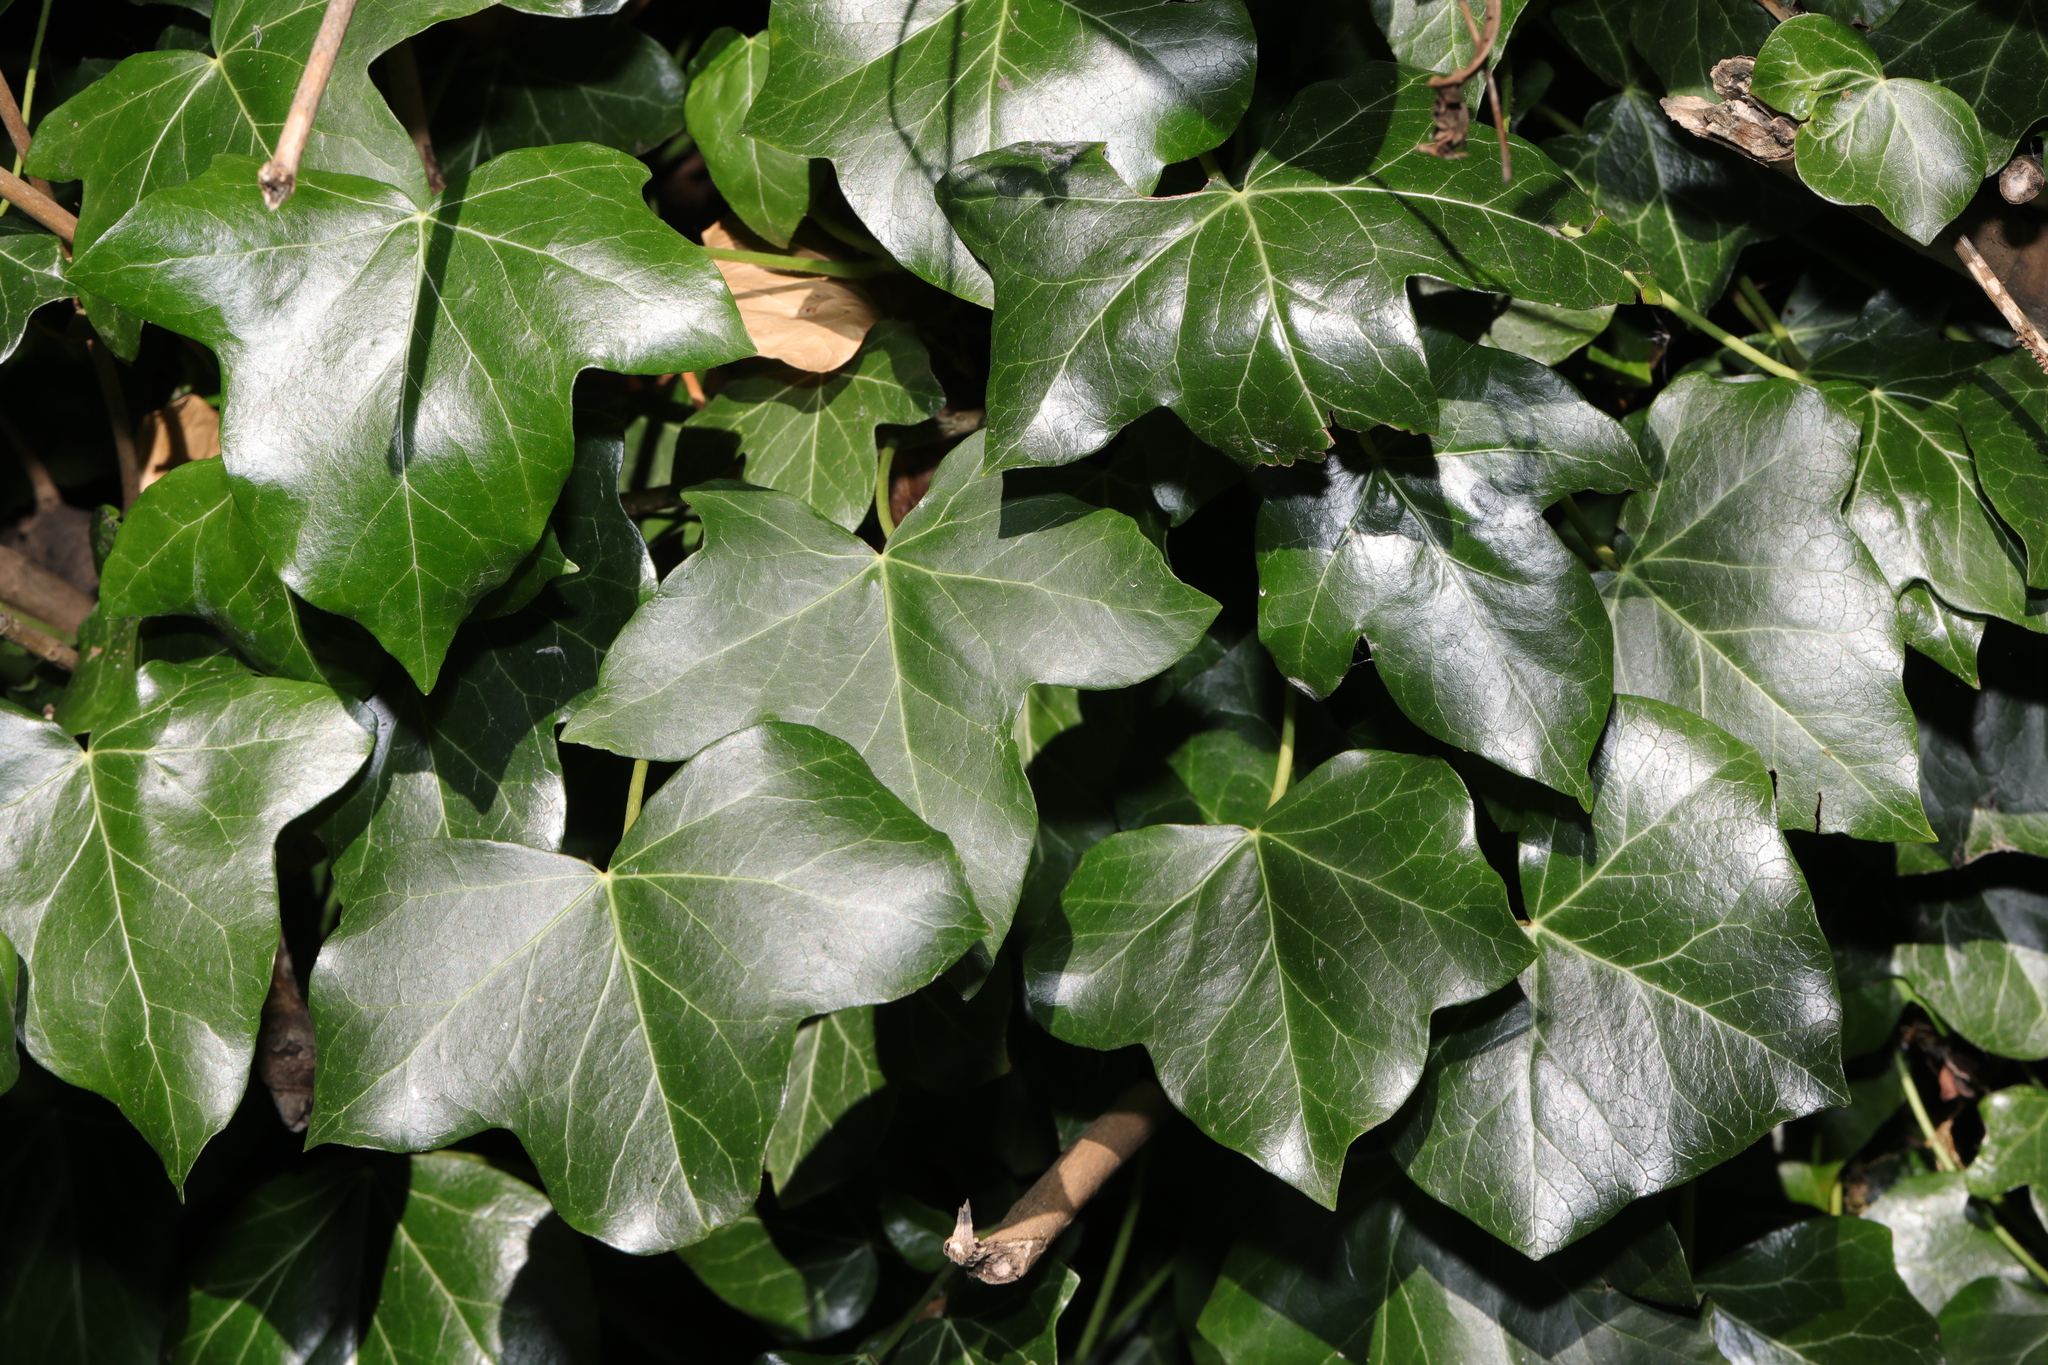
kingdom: Plantae
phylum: Tracheophyta
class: Magnoliopsida
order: Apiales
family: Araliaceae
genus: Hedera
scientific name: Hedera helix
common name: Ivy
